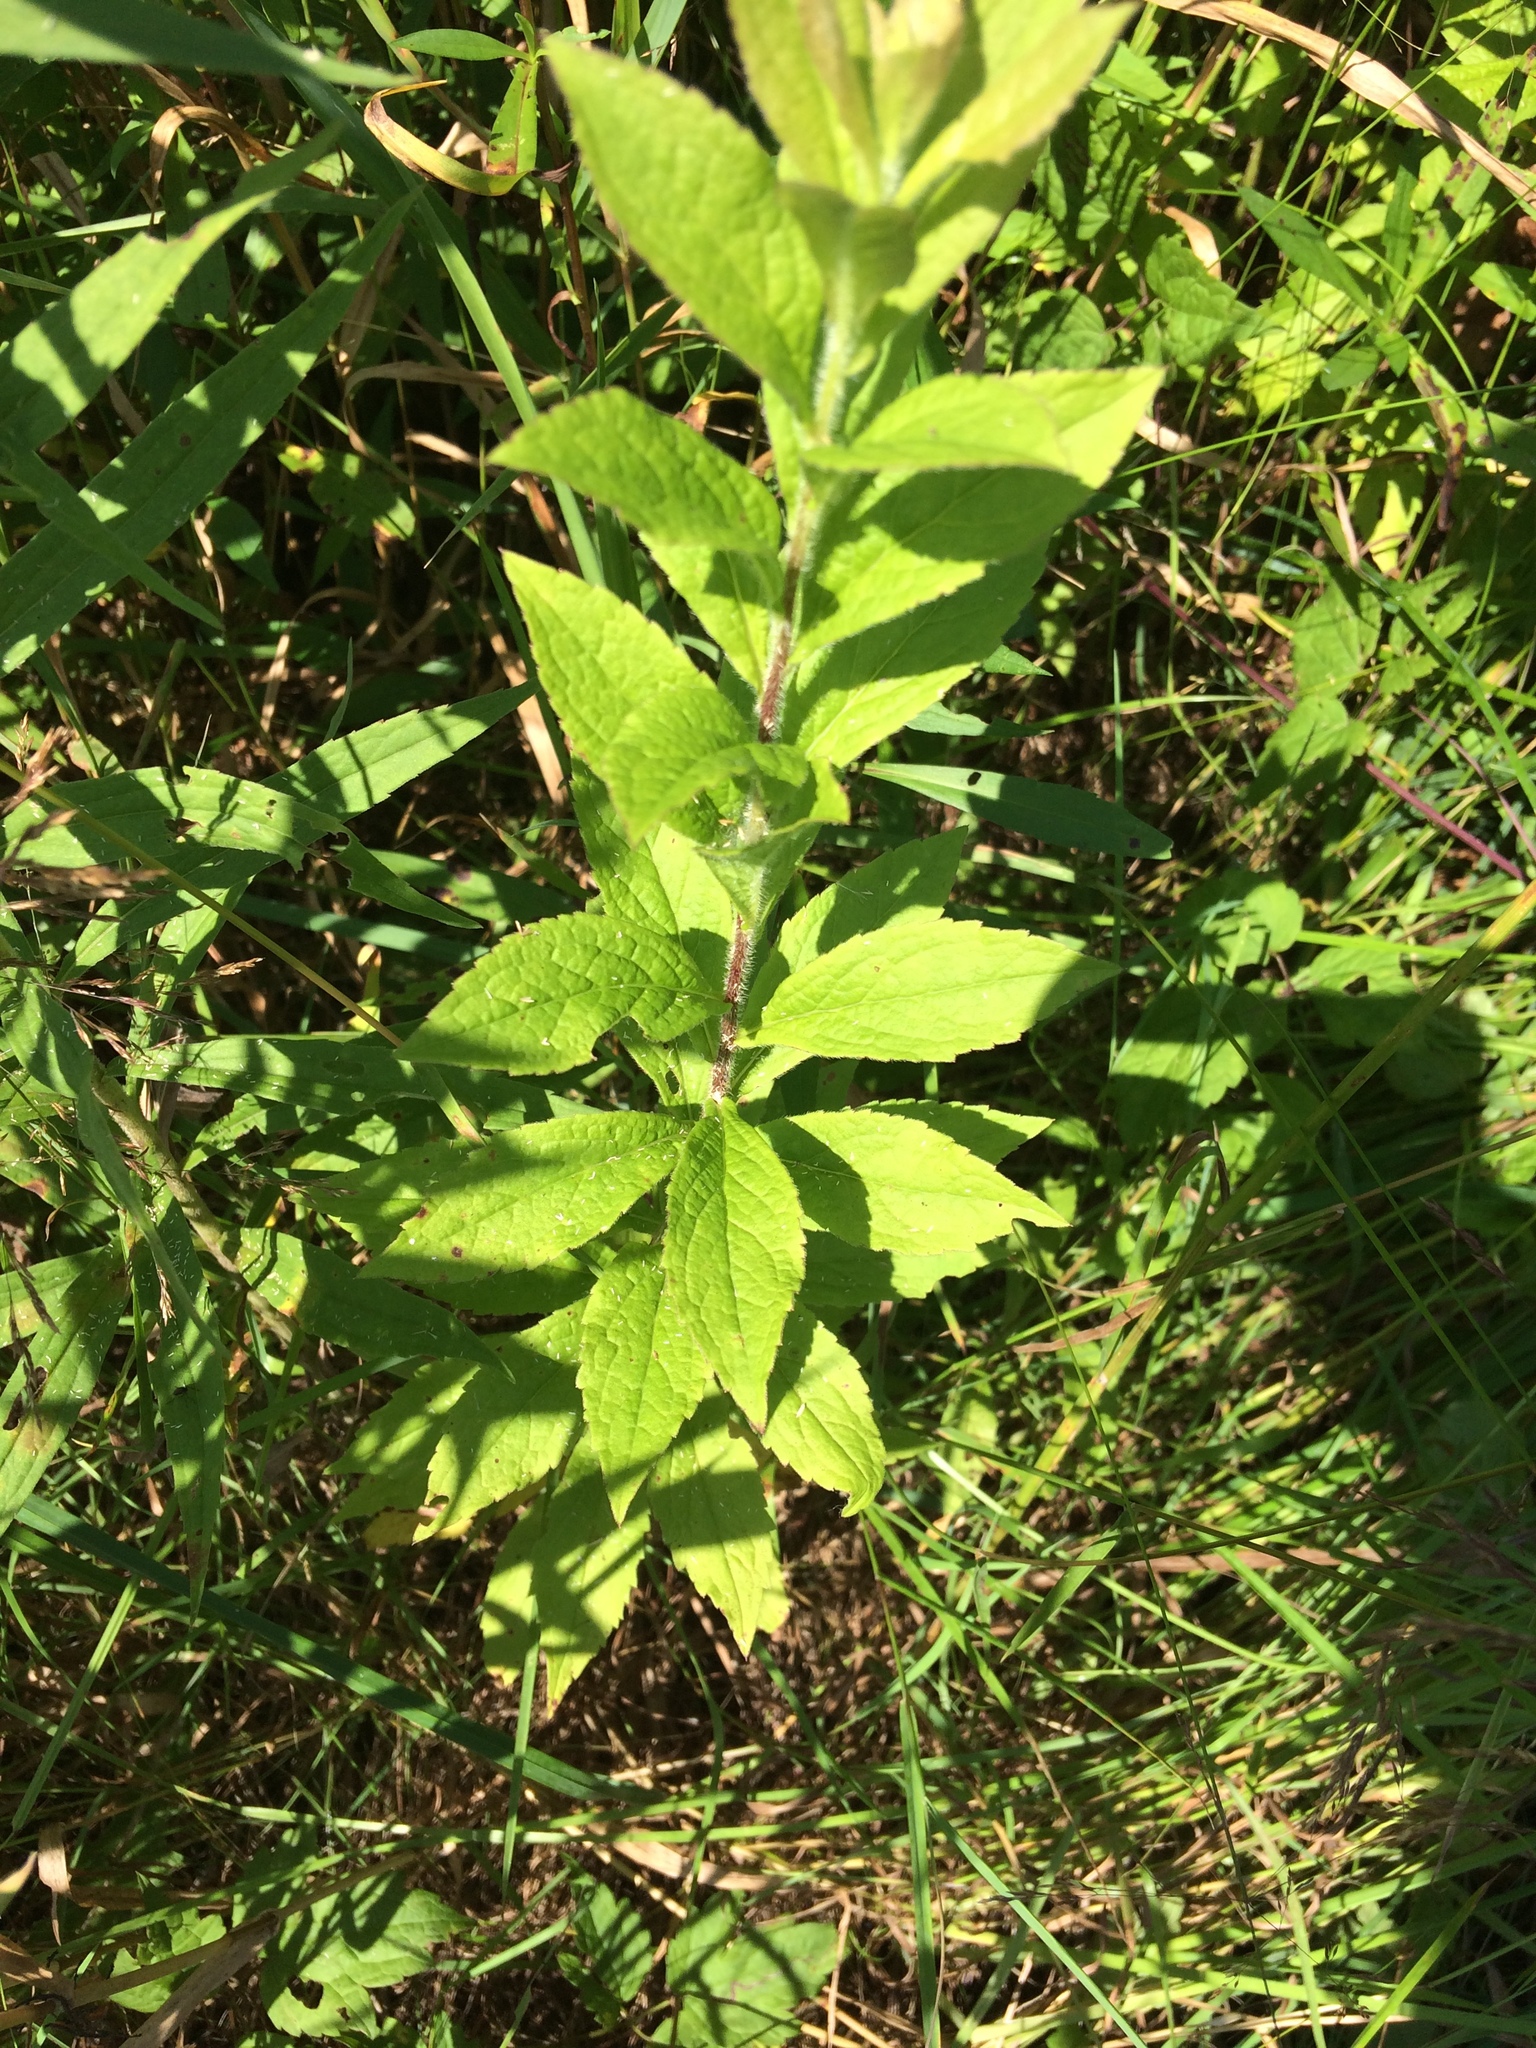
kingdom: Plantae
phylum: Tracheophyta
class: Magnoliopsida
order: Asterales
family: Asteraceae
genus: Solidago
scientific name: Solidago rugosa
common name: Rough-stemmed goldenrod
